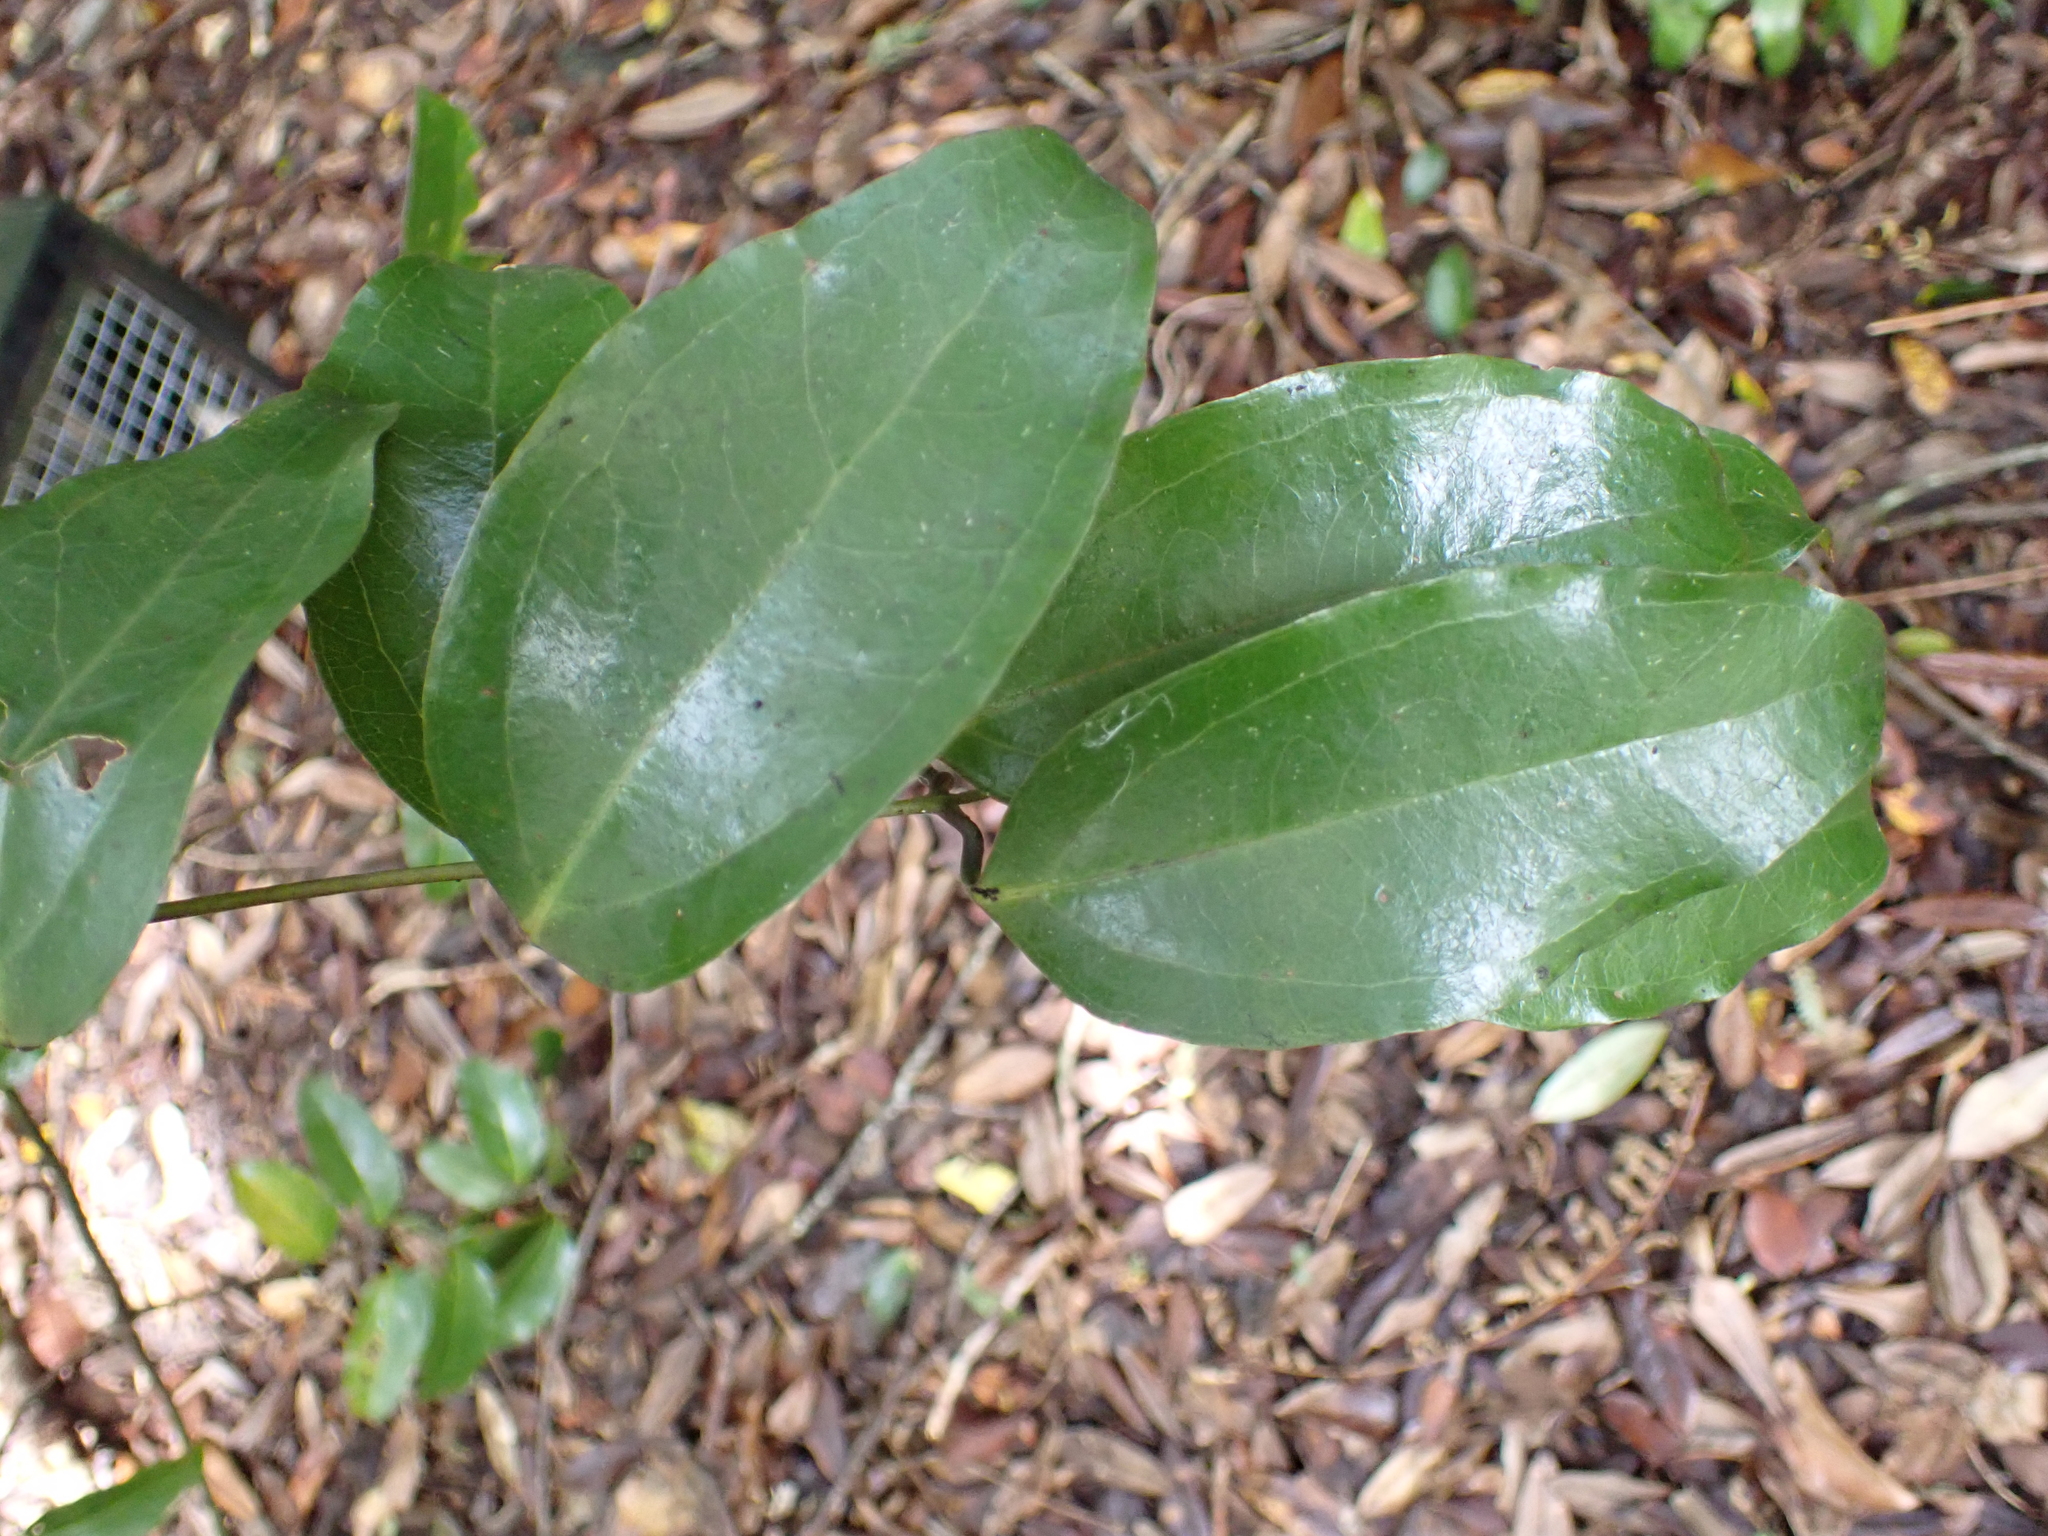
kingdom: Plantae
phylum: Tracheophyta
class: Liliopsida
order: Liliales
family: Ripogonaceae
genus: Ripogonum
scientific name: Ripogonum scandens
